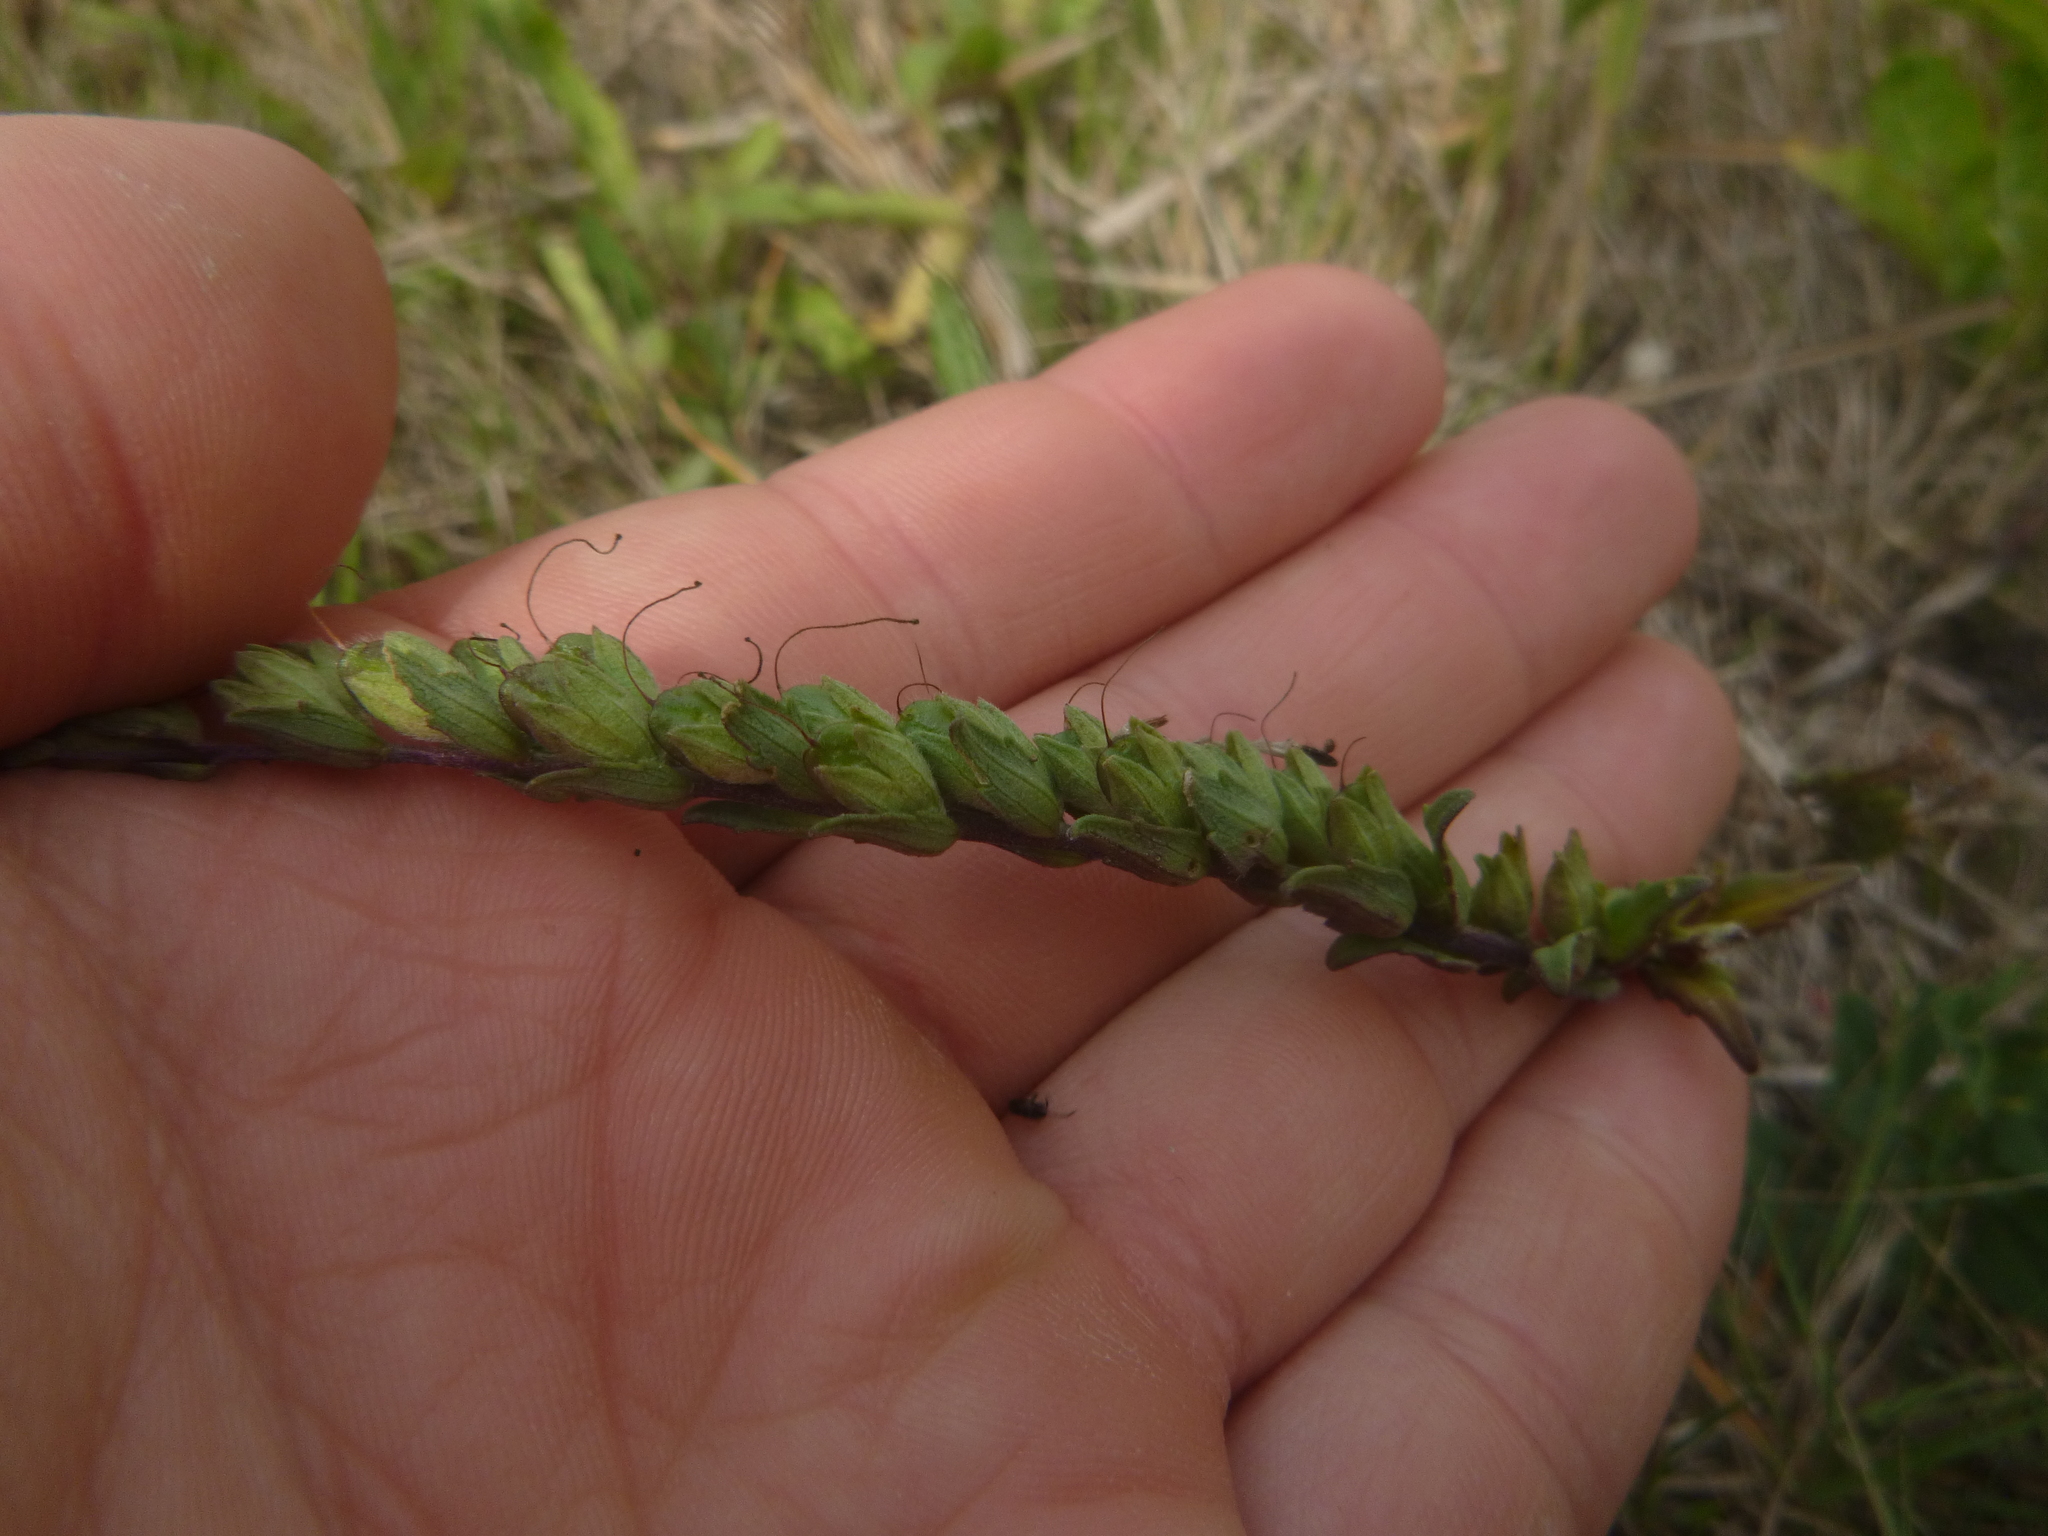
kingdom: Plantae
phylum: Tracheophyta
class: Magnoliopsida
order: Lamiales
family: Orobanchaceae
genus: Odontites
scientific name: Odontites vulgaris
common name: Broomrape
